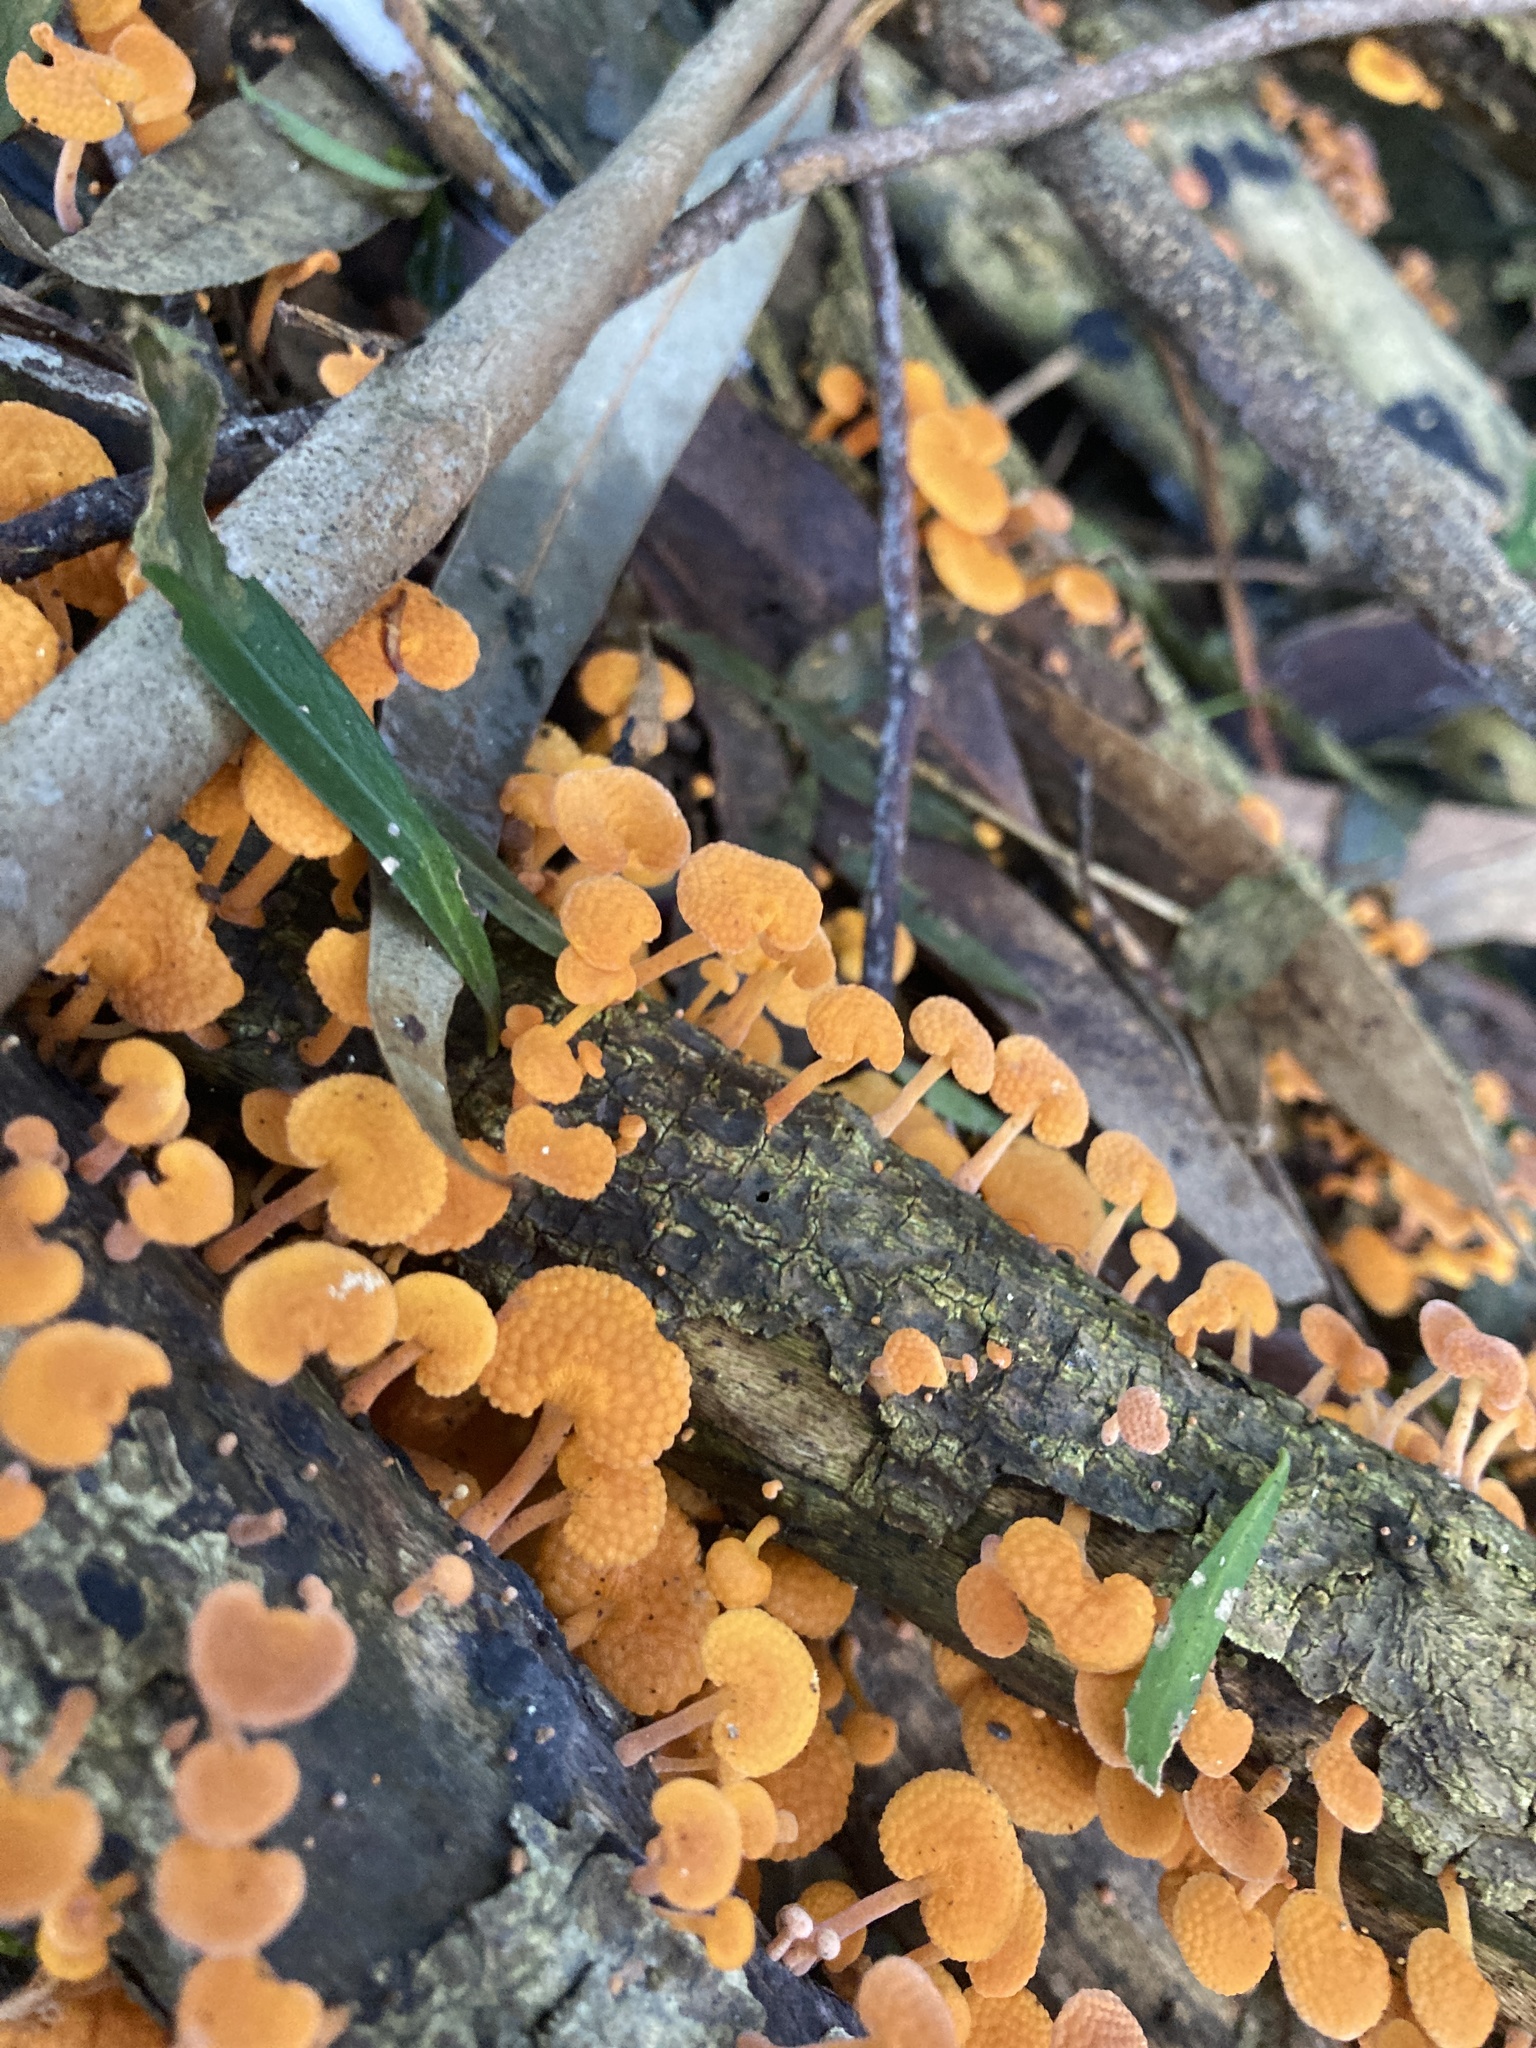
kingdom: Fungi
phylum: Basidiomycota
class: Agaricomycetes
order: Agaricales
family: Mycenaceae
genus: Favolaschia
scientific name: Favolaschia claudopus
